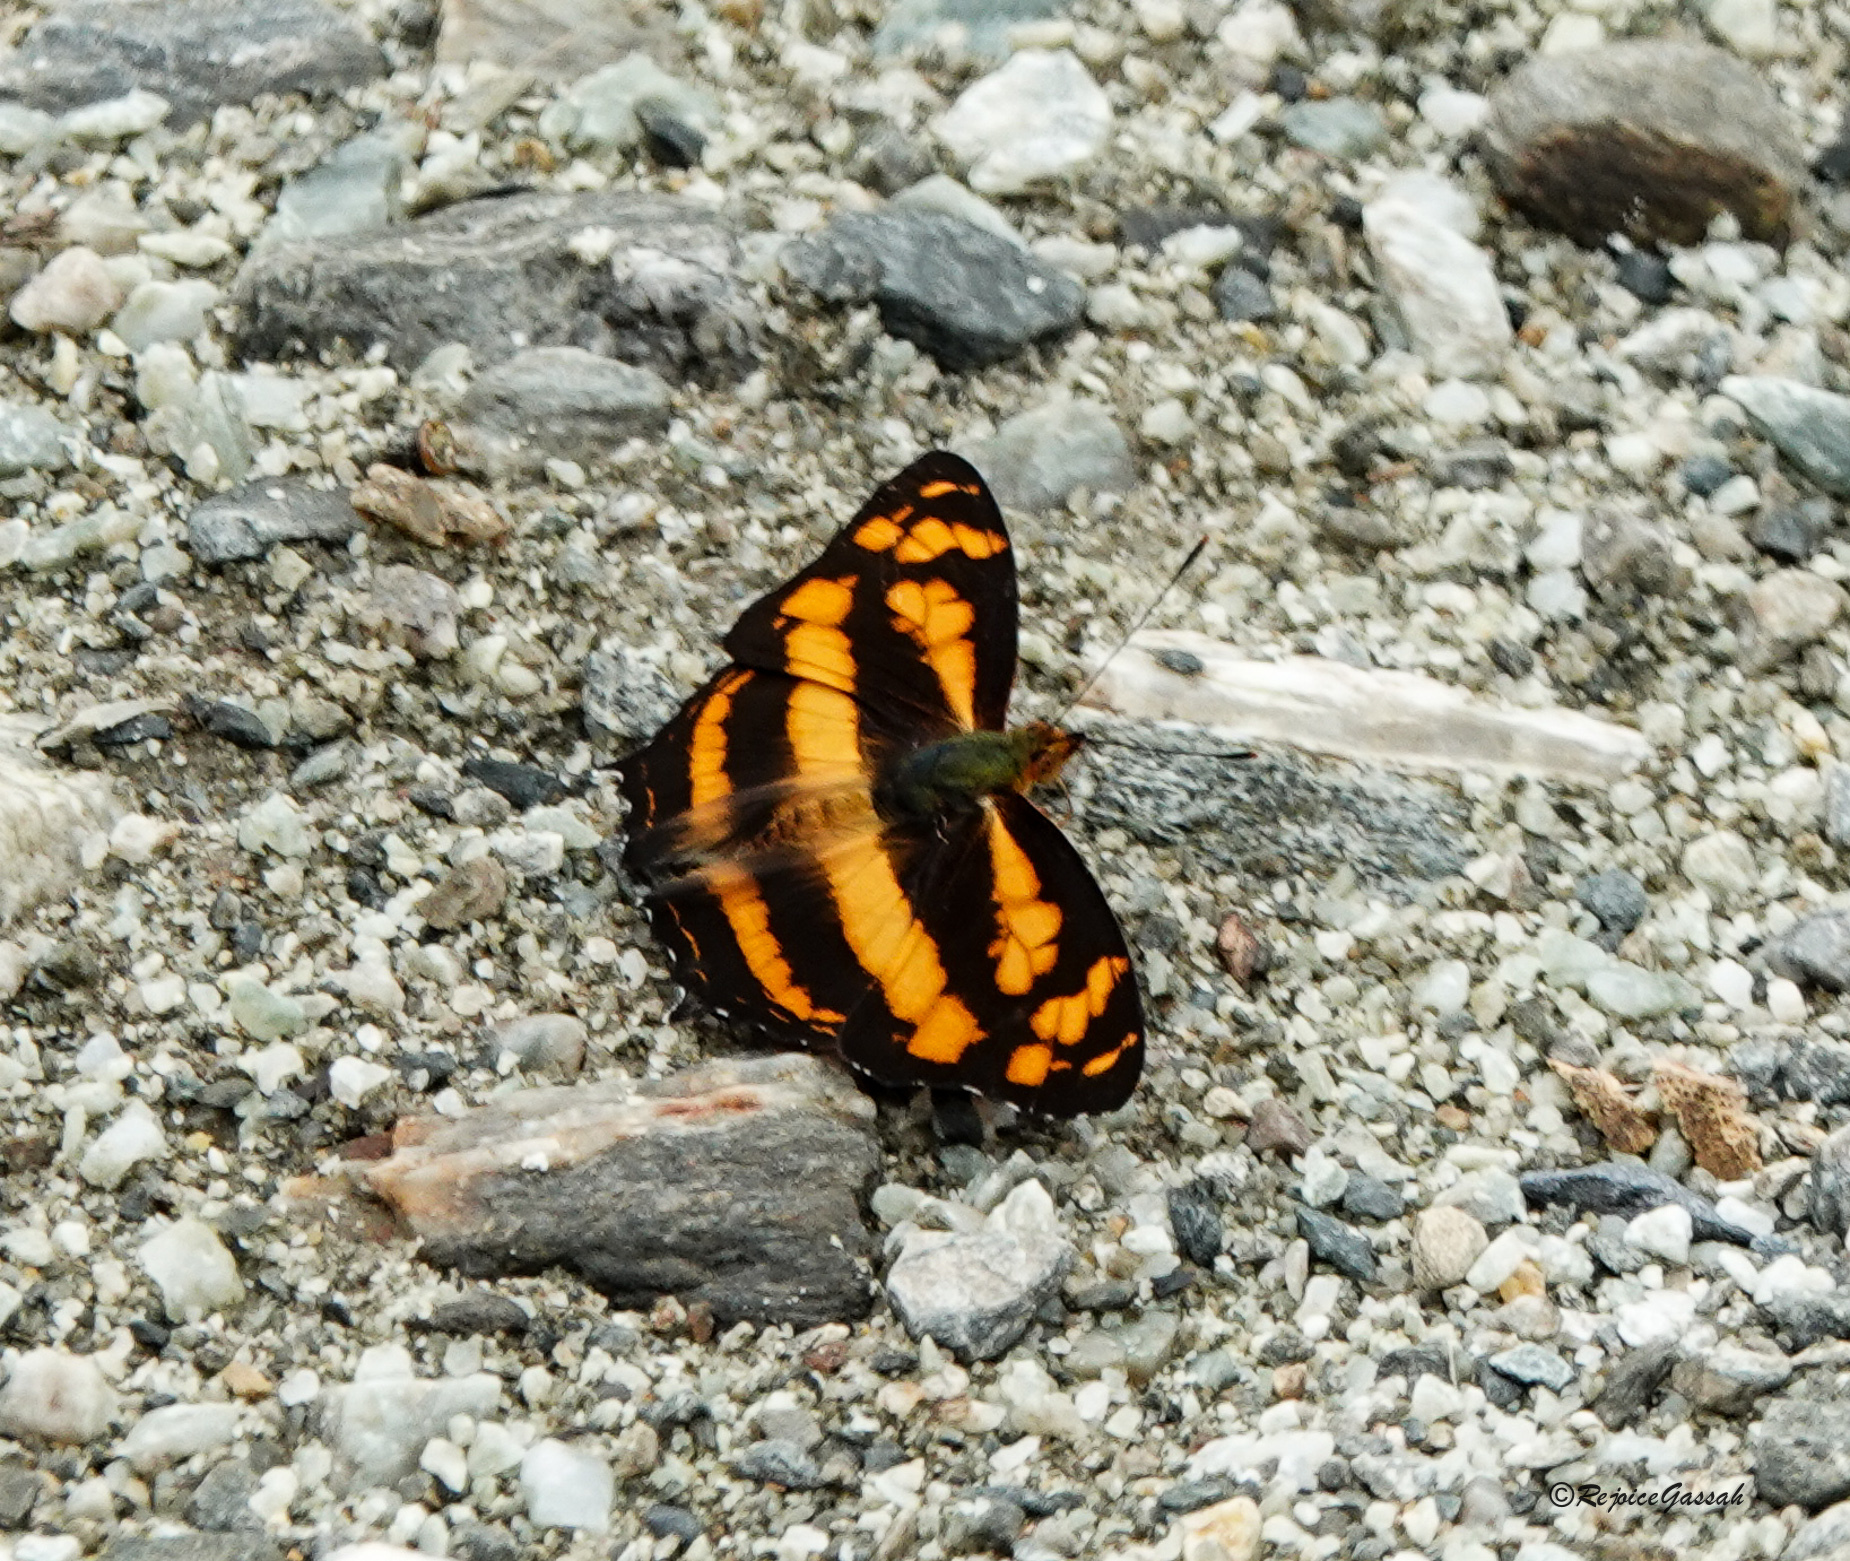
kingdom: Animalia
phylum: Arthropoda
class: Insecta
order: Lepidoptera
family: Nymphalidae
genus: Symbrenthia
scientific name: Symbrenthia hypselis
